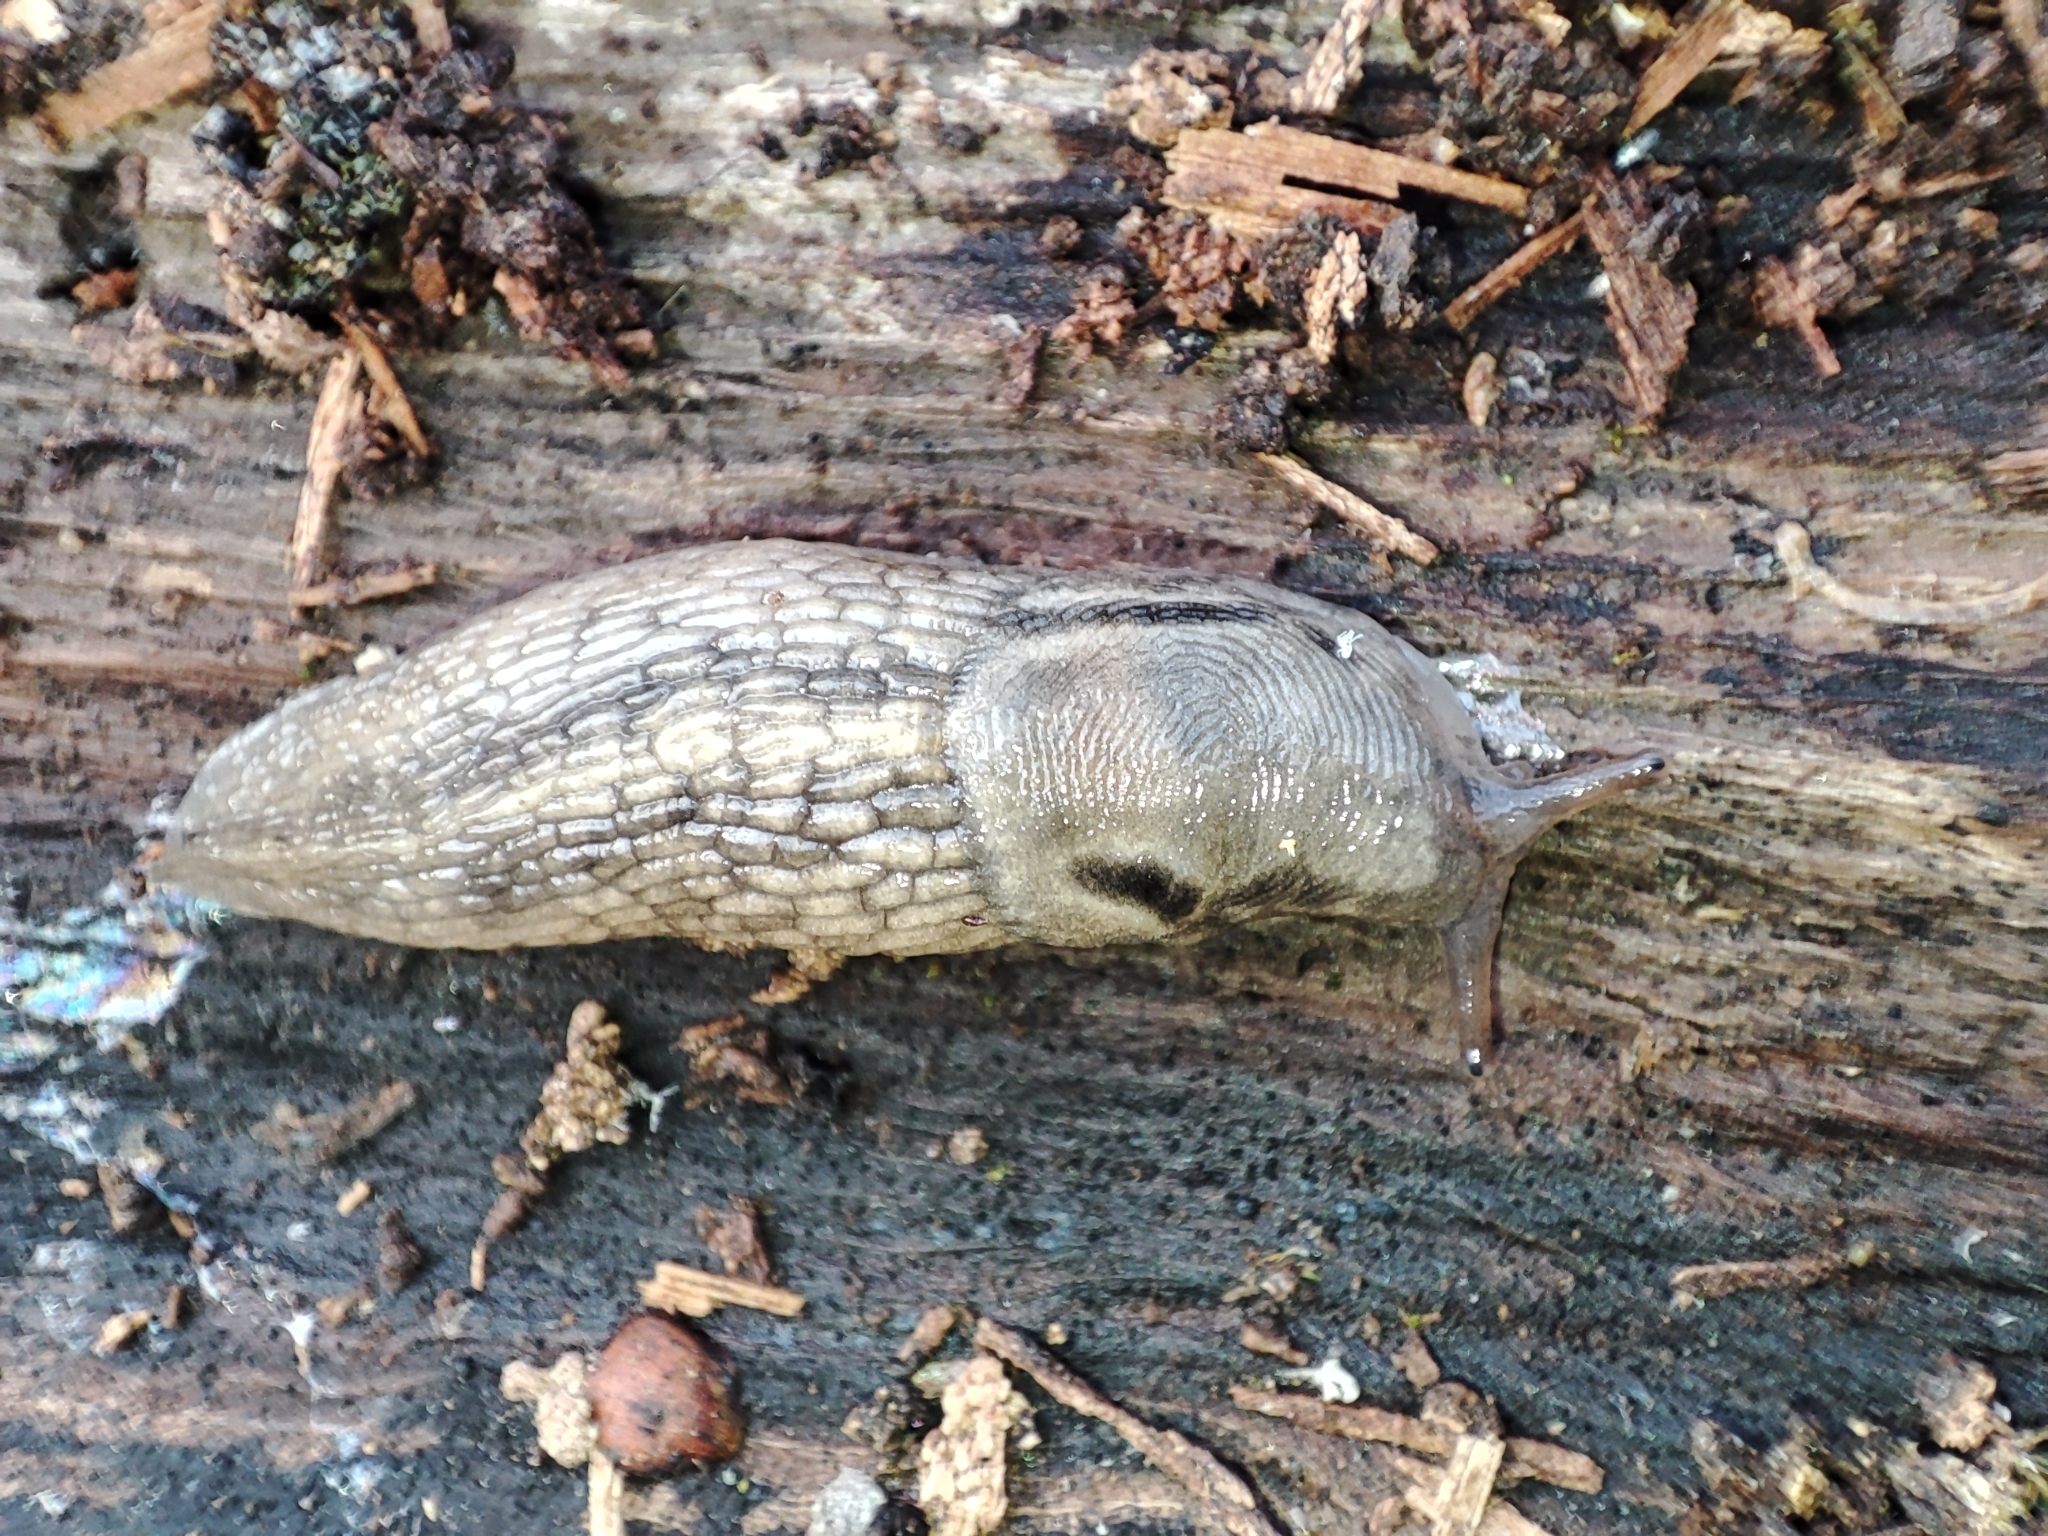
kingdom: Animalia
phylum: Mollusca
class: Gastropoda
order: Stylommatophora
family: Limacidae
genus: Lehmannia
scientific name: Lehmannia marginata
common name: Tree slug
